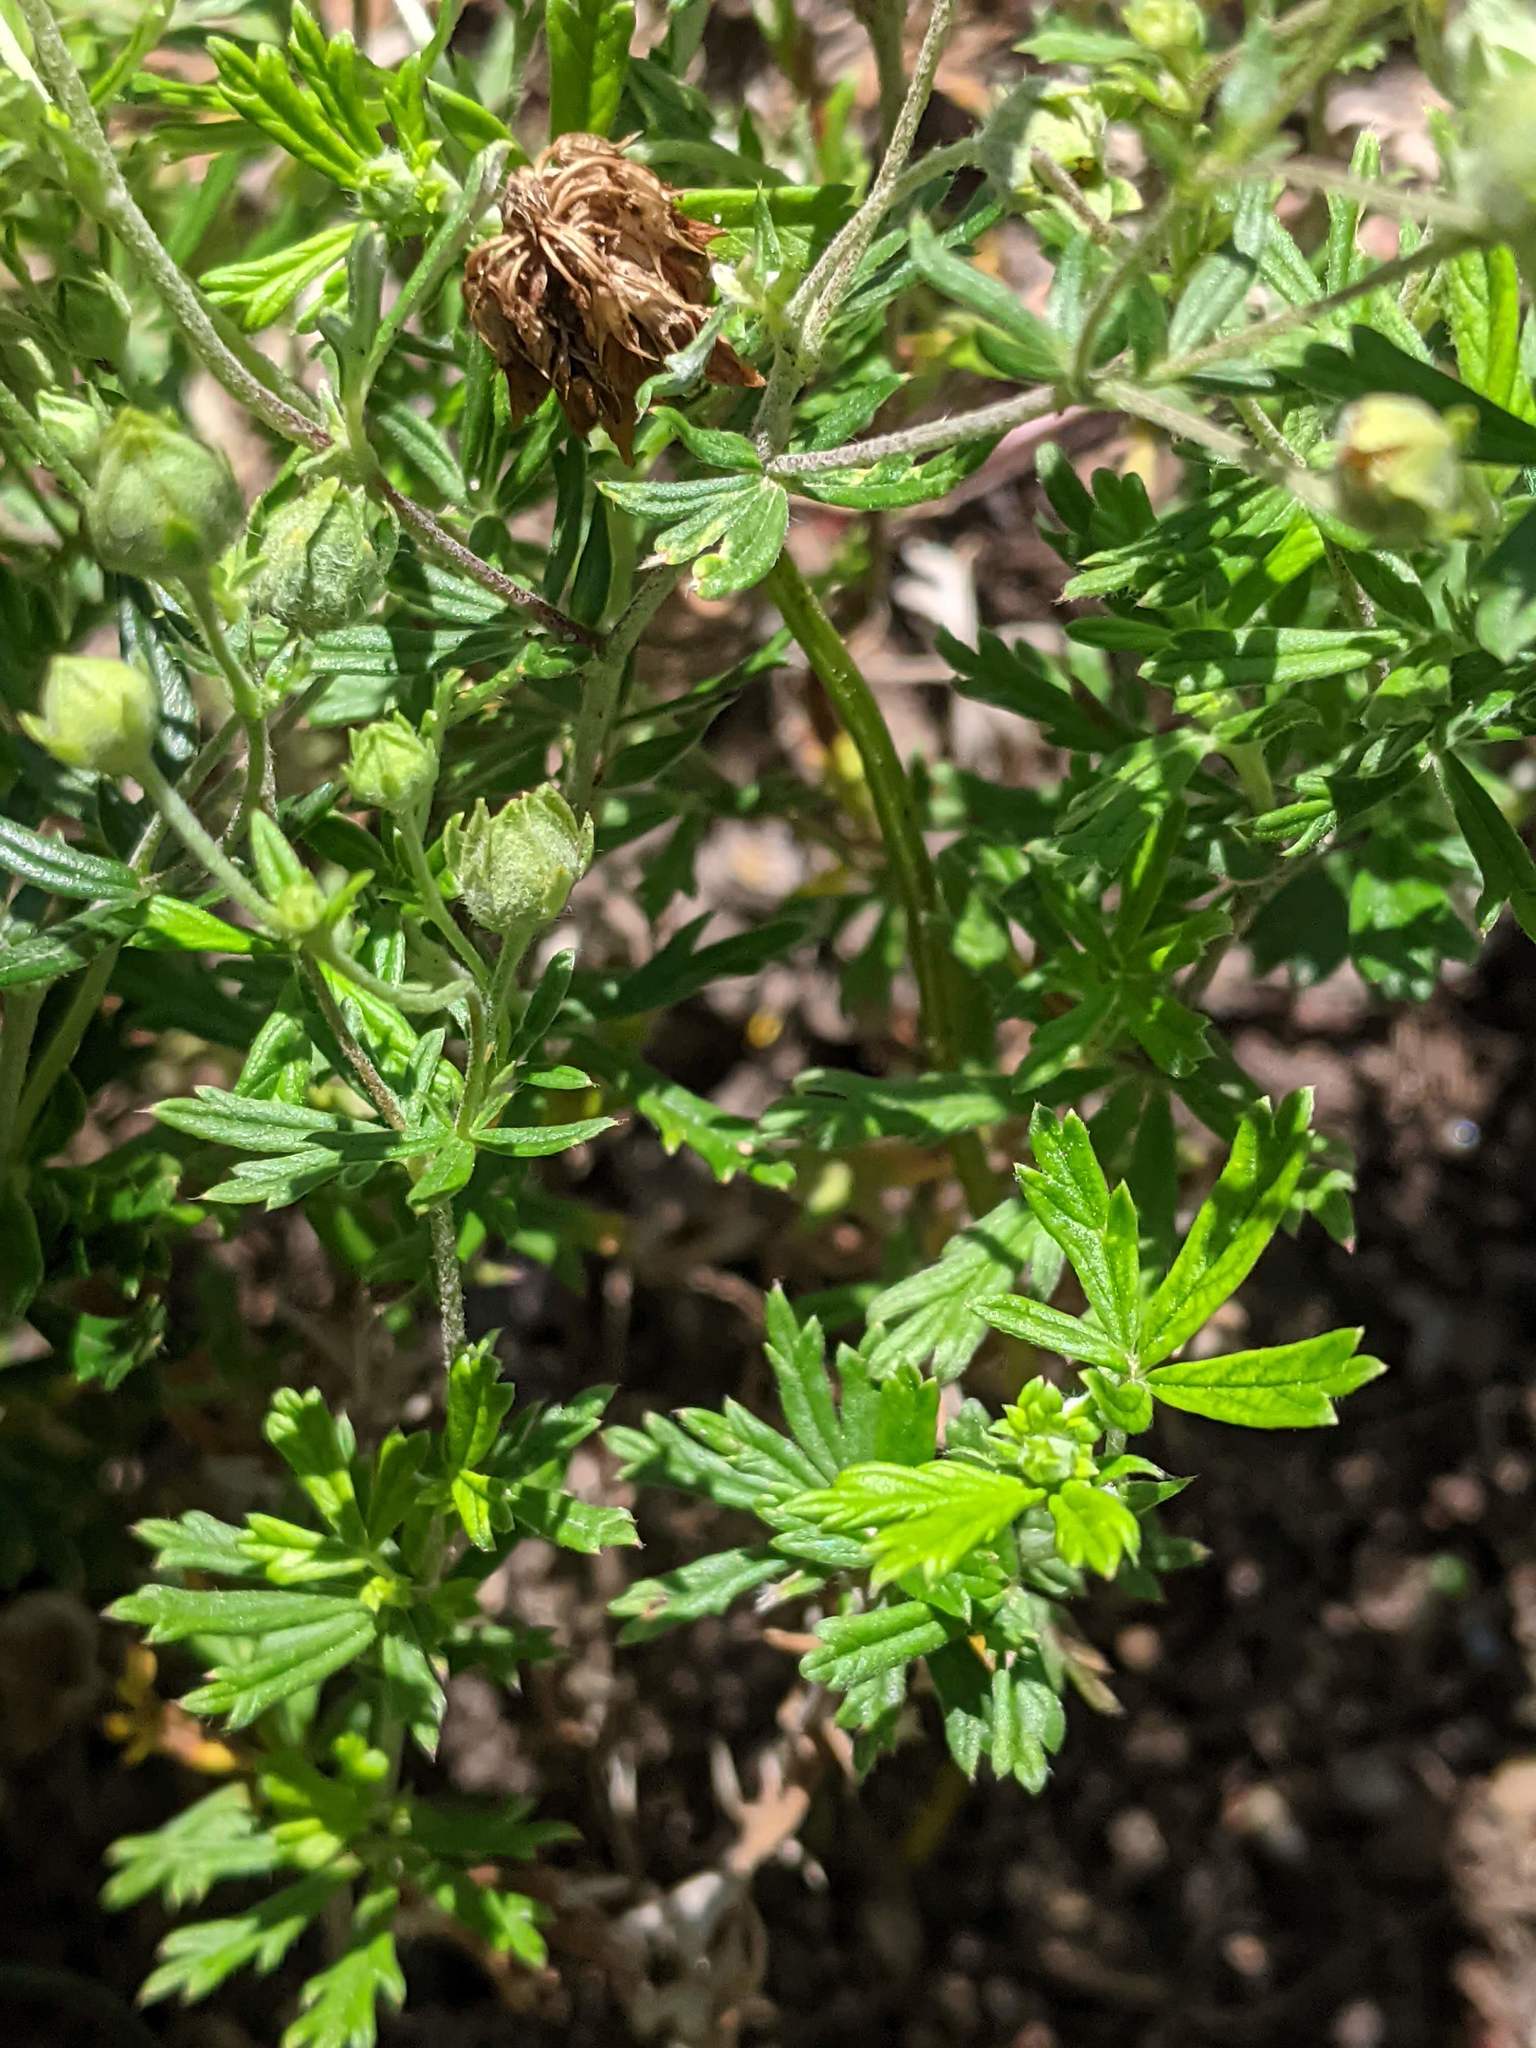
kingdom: Plantae
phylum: Tracheophyta
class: Magnoliopsida
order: Rosales
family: Rosaceae
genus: Potentilla
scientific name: Potentilla argentea
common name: Hoary cinquefoil
